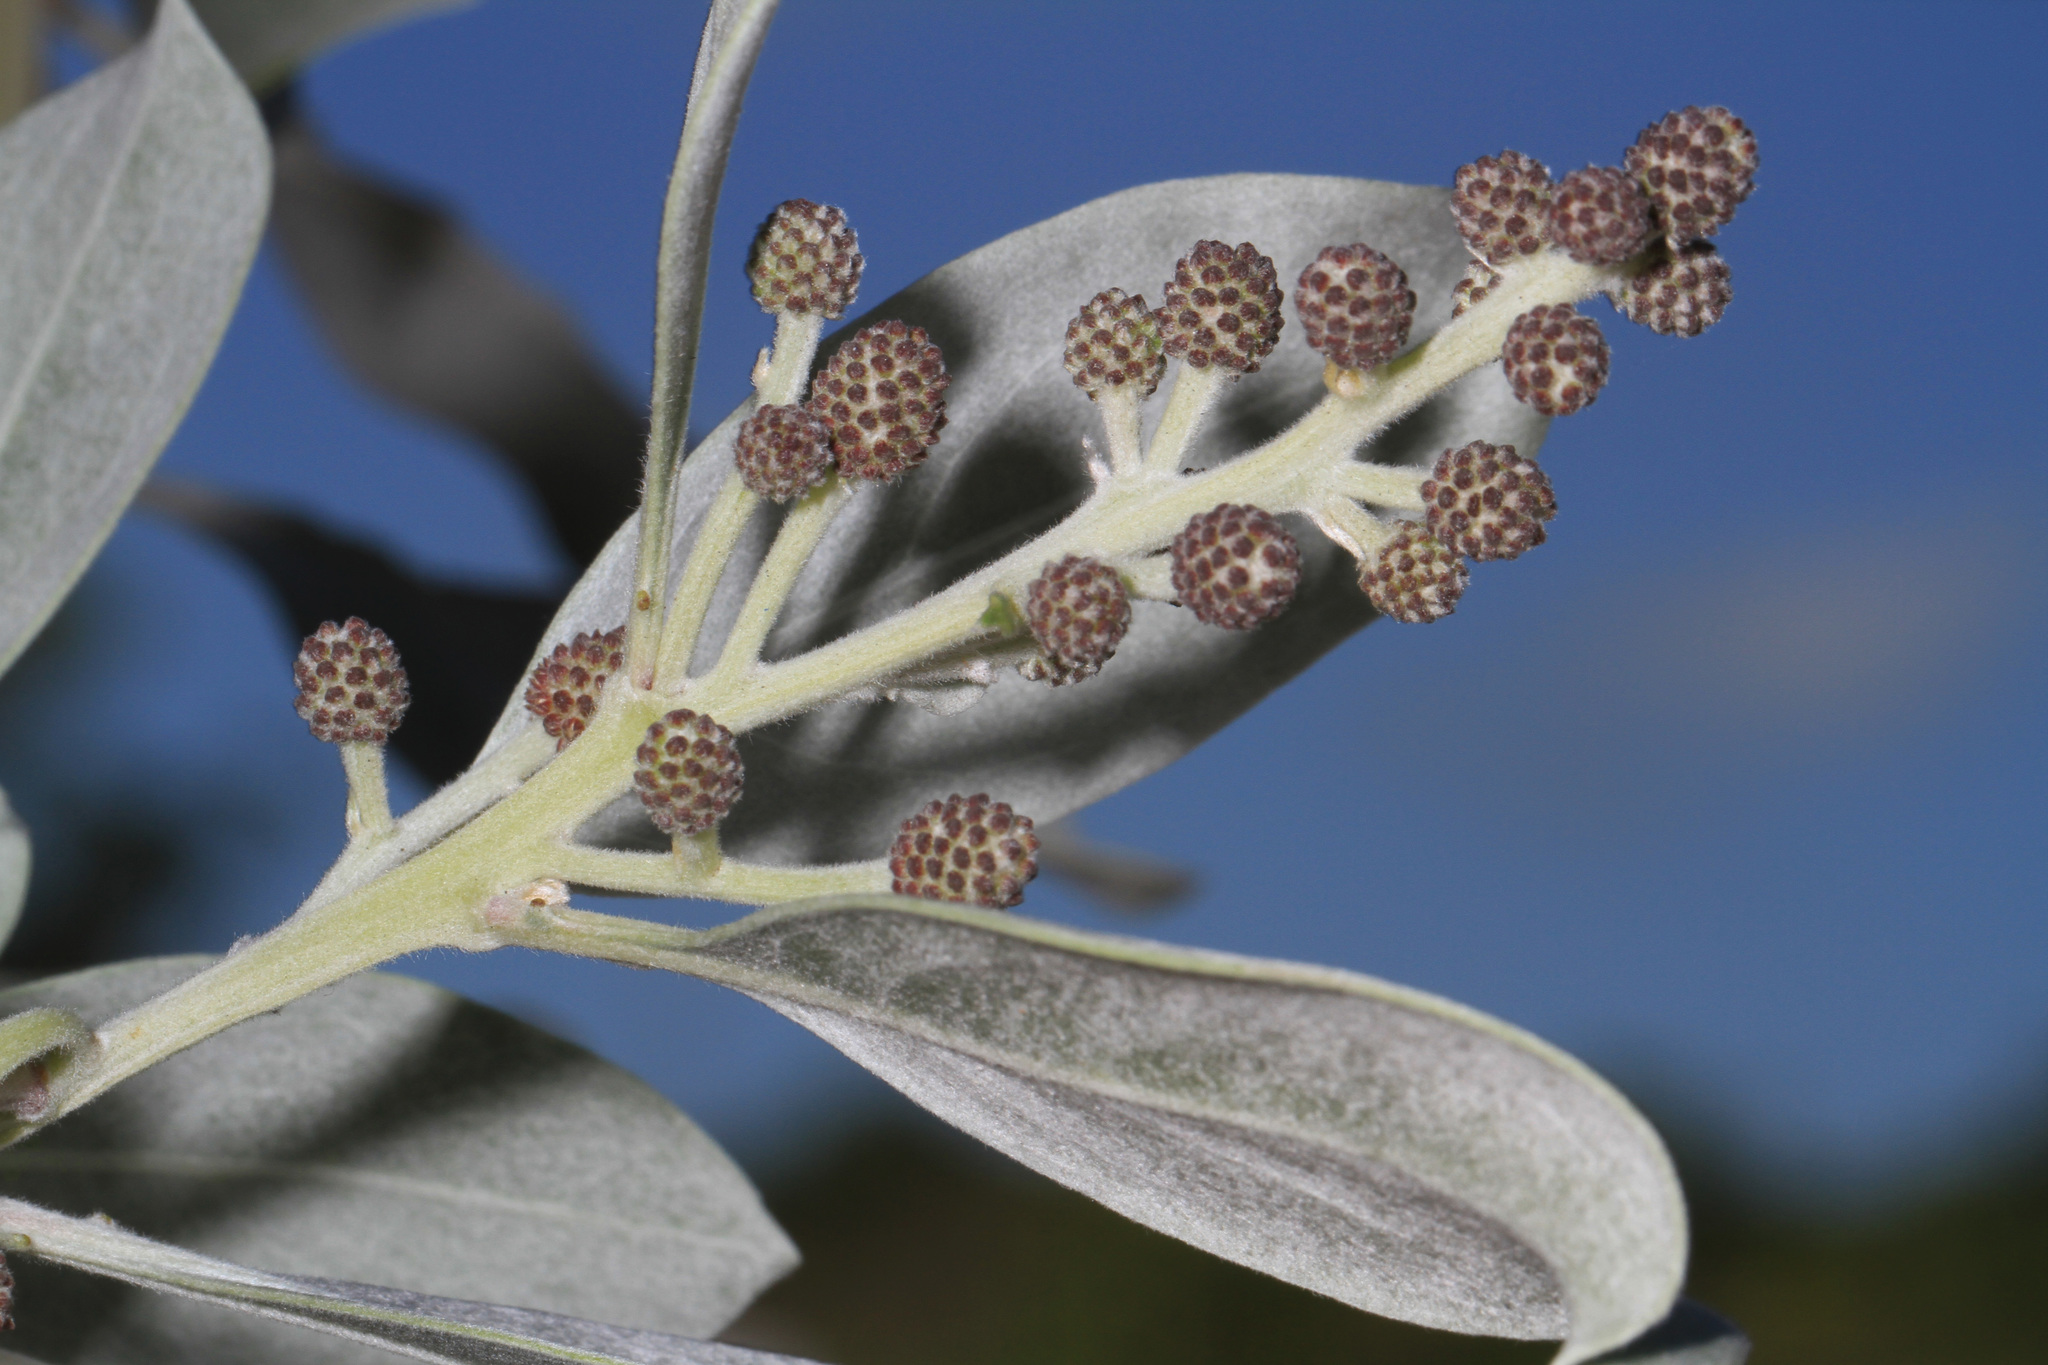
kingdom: Plantae
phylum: Tracheophyta
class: Magnoliopsida
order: Myrtales
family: Combretaceae
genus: Conocarpus
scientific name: Conocarpus erectus
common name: Button mangrove
